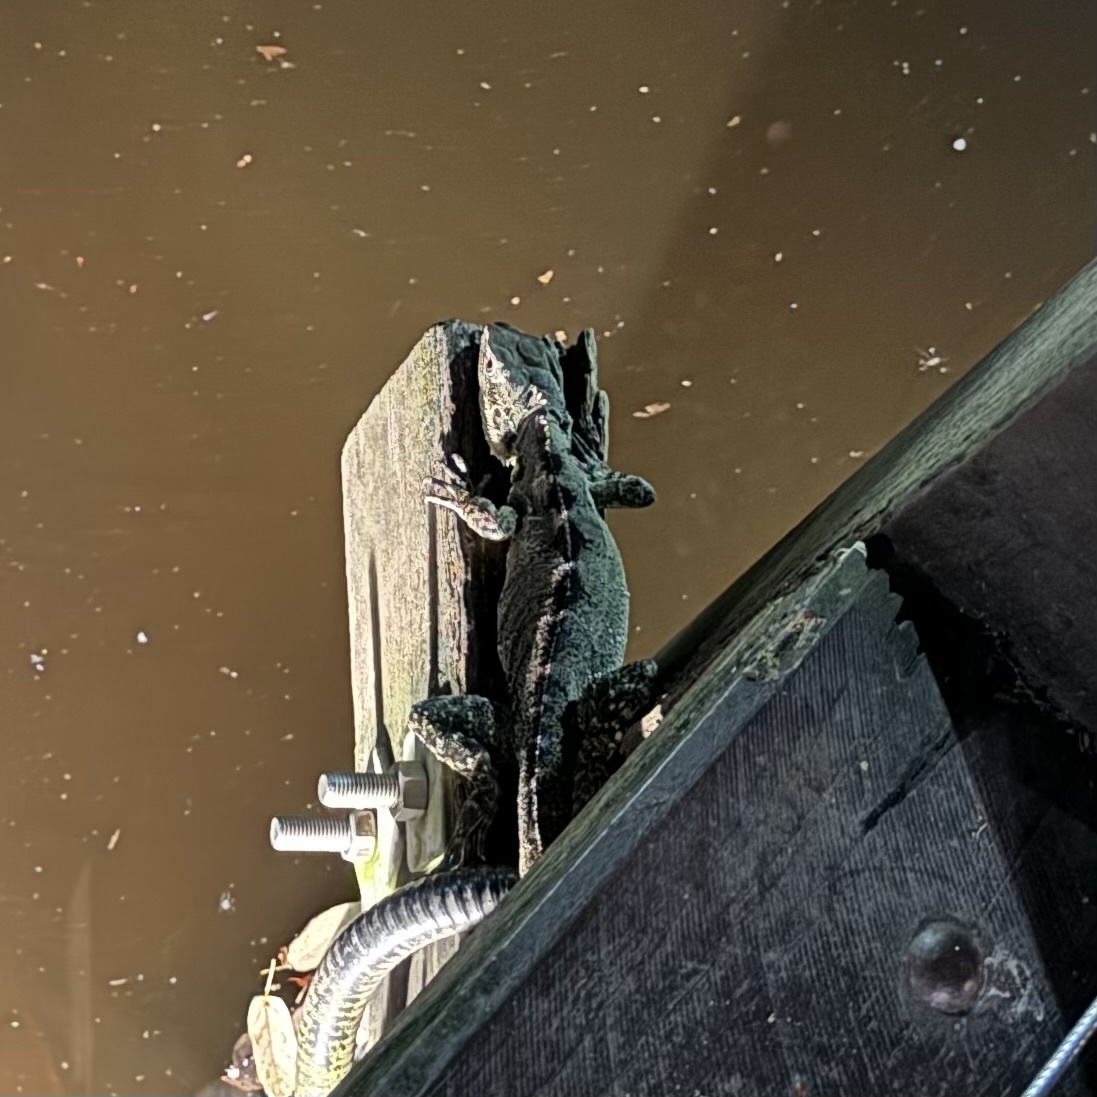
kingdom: Animalia
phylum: Chordata
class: Squamata
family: Agamidae
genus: Intellagama
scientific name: Intellagama lesueurii
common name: Eastern water dragon
